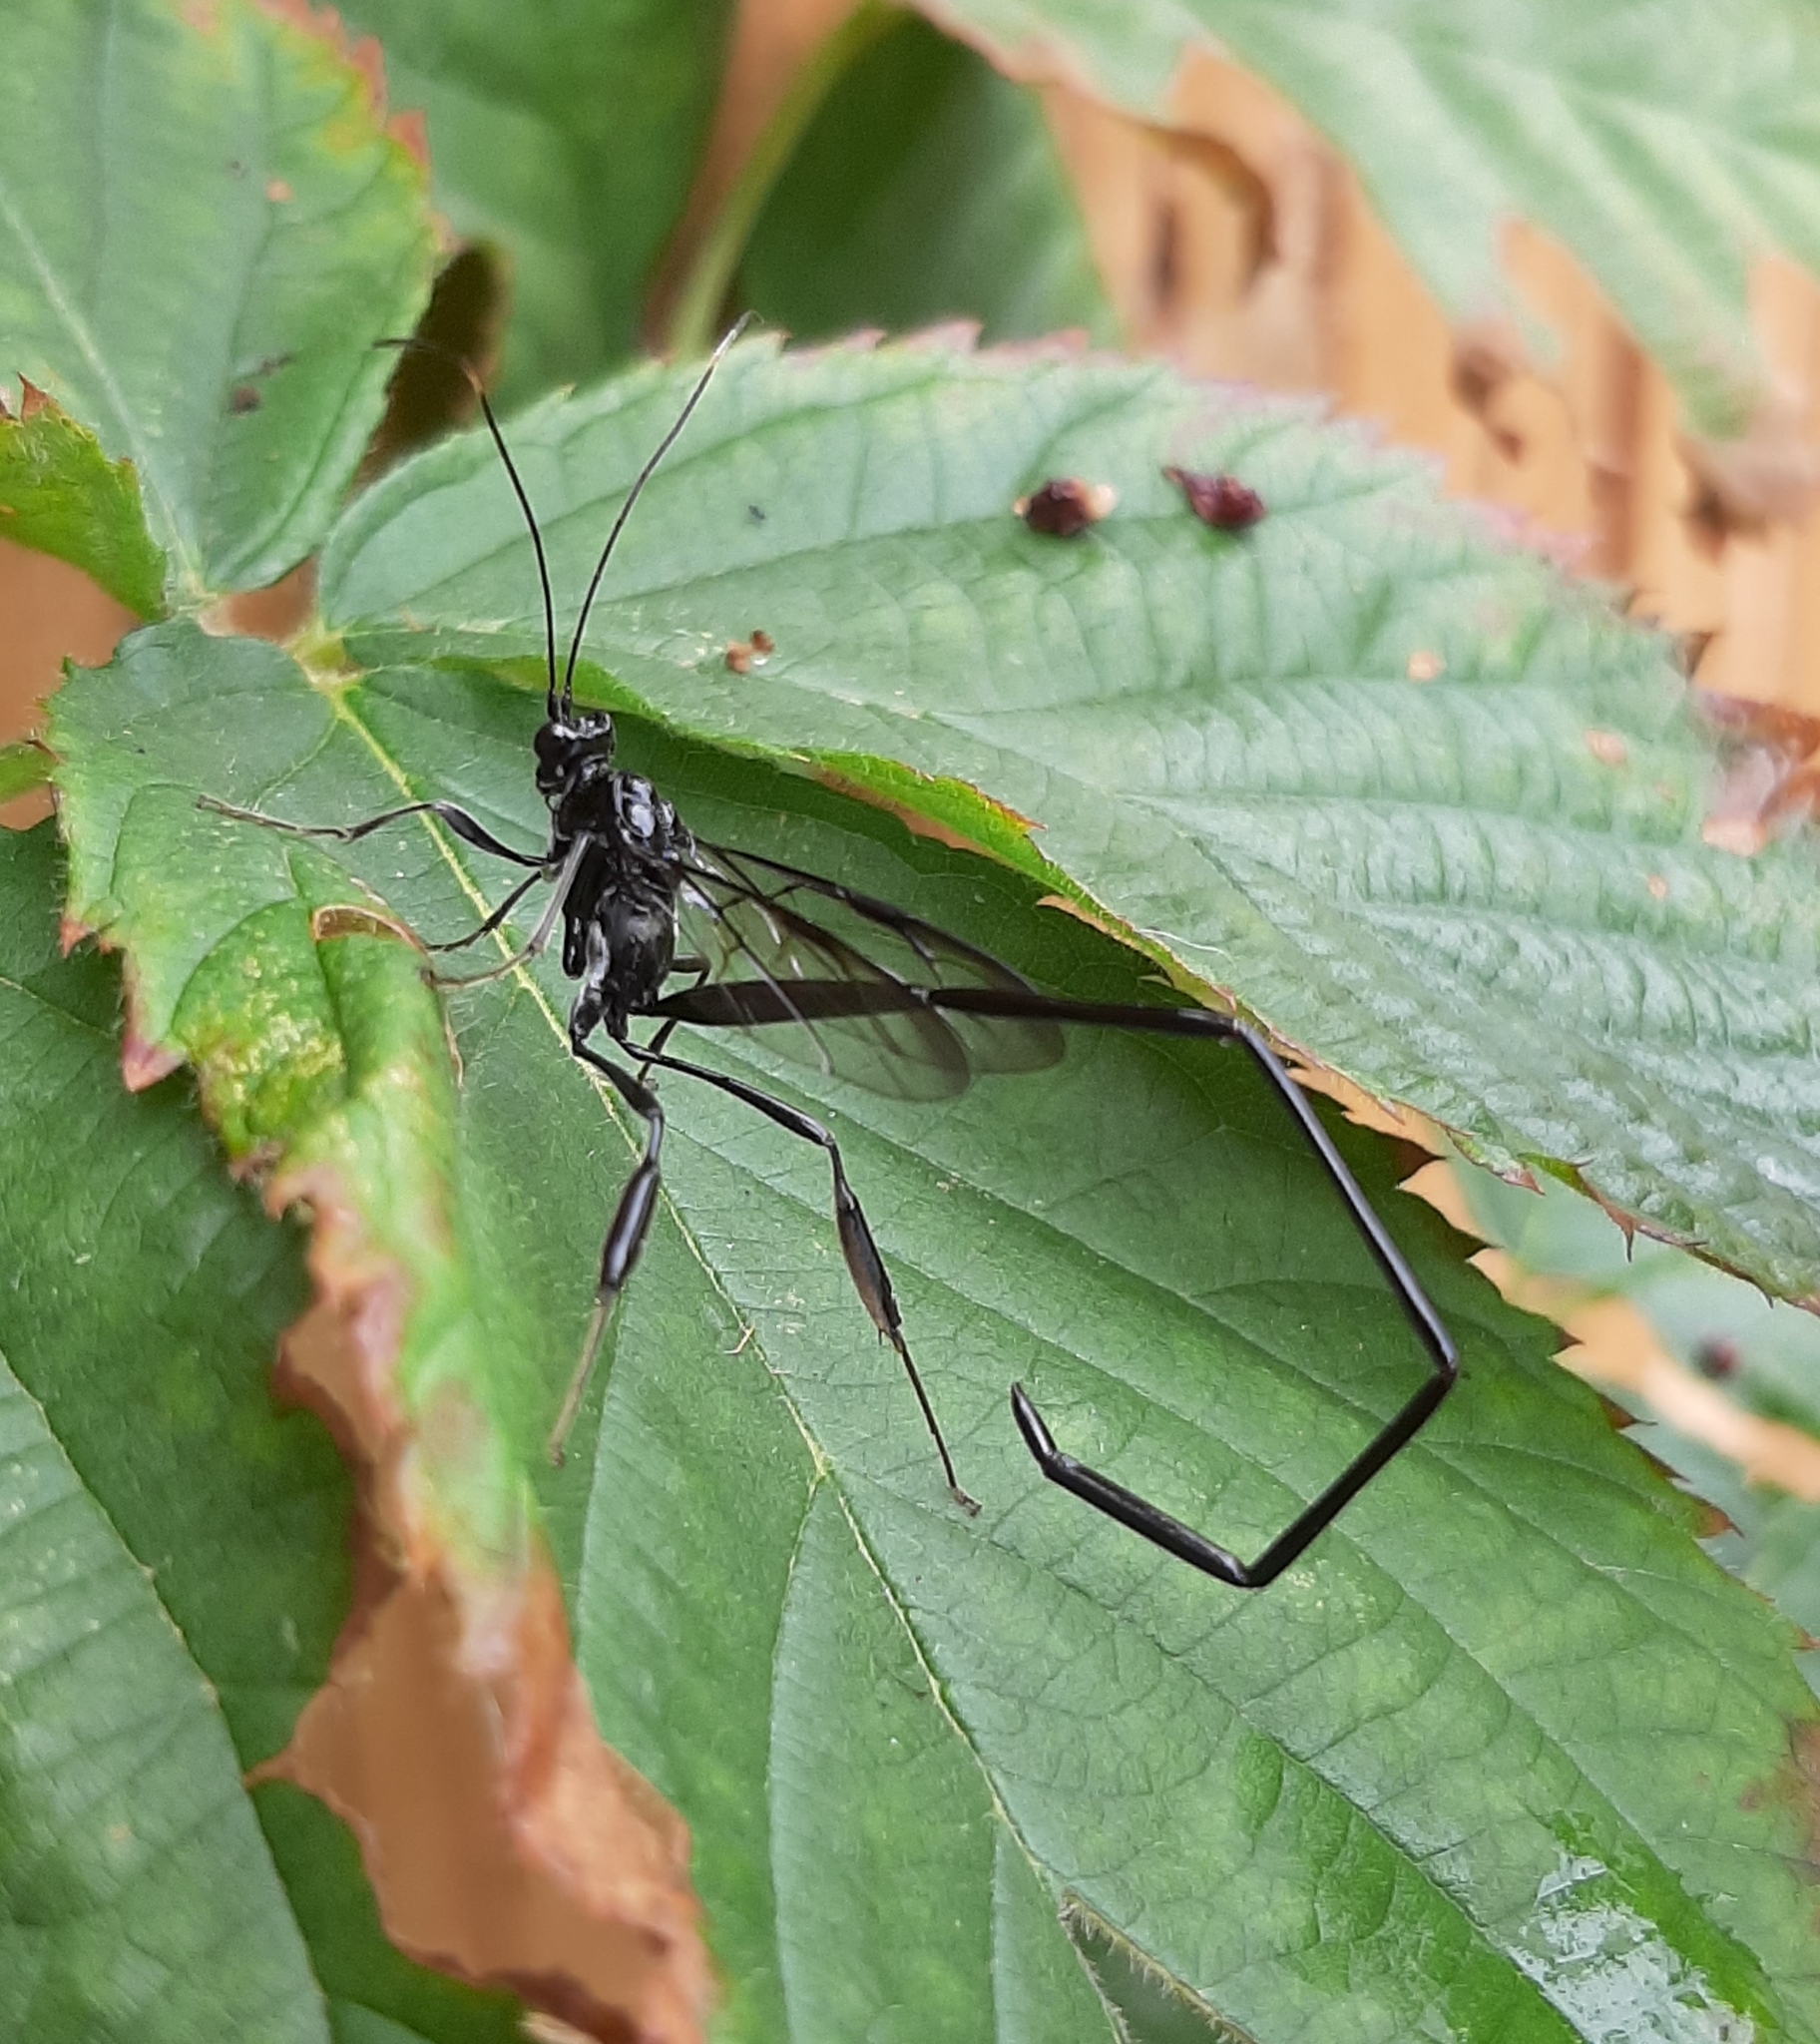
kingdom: Animalia
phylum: Arthropoda
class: Insecta
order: Hymenoptera
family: Pelecinidae
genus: Pelecinus
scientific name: Pelecinus polyturator
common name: American pelecinid wasp
